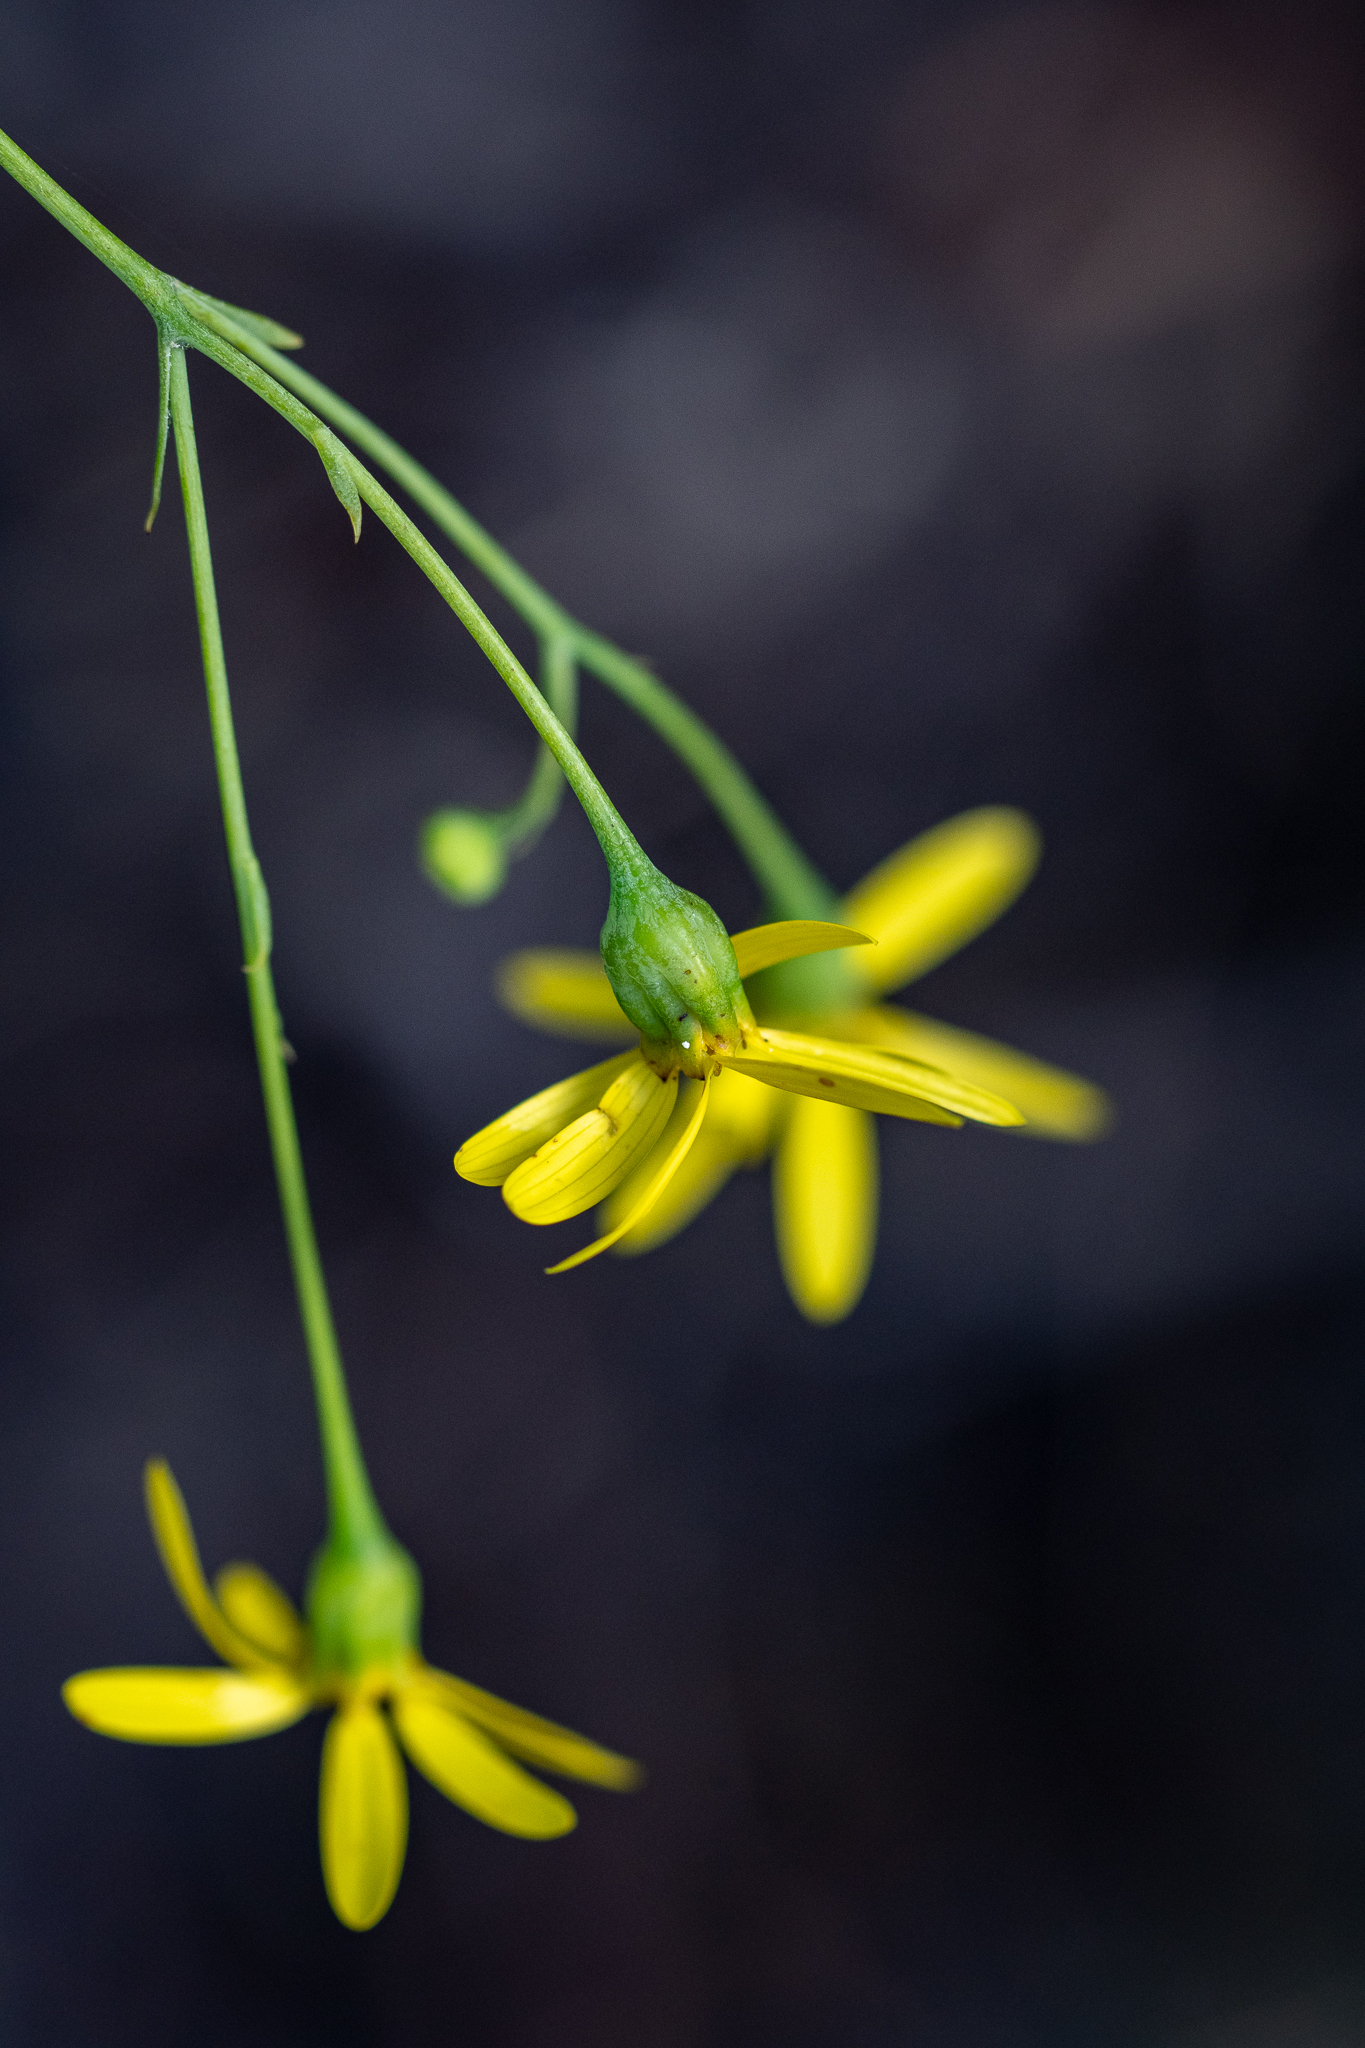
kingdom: Plantae
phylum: Tracheophyta
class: Magnoliopsida
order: Asterales
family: Asteraceae
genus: Othonna
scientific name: Othonna quinquedentata
